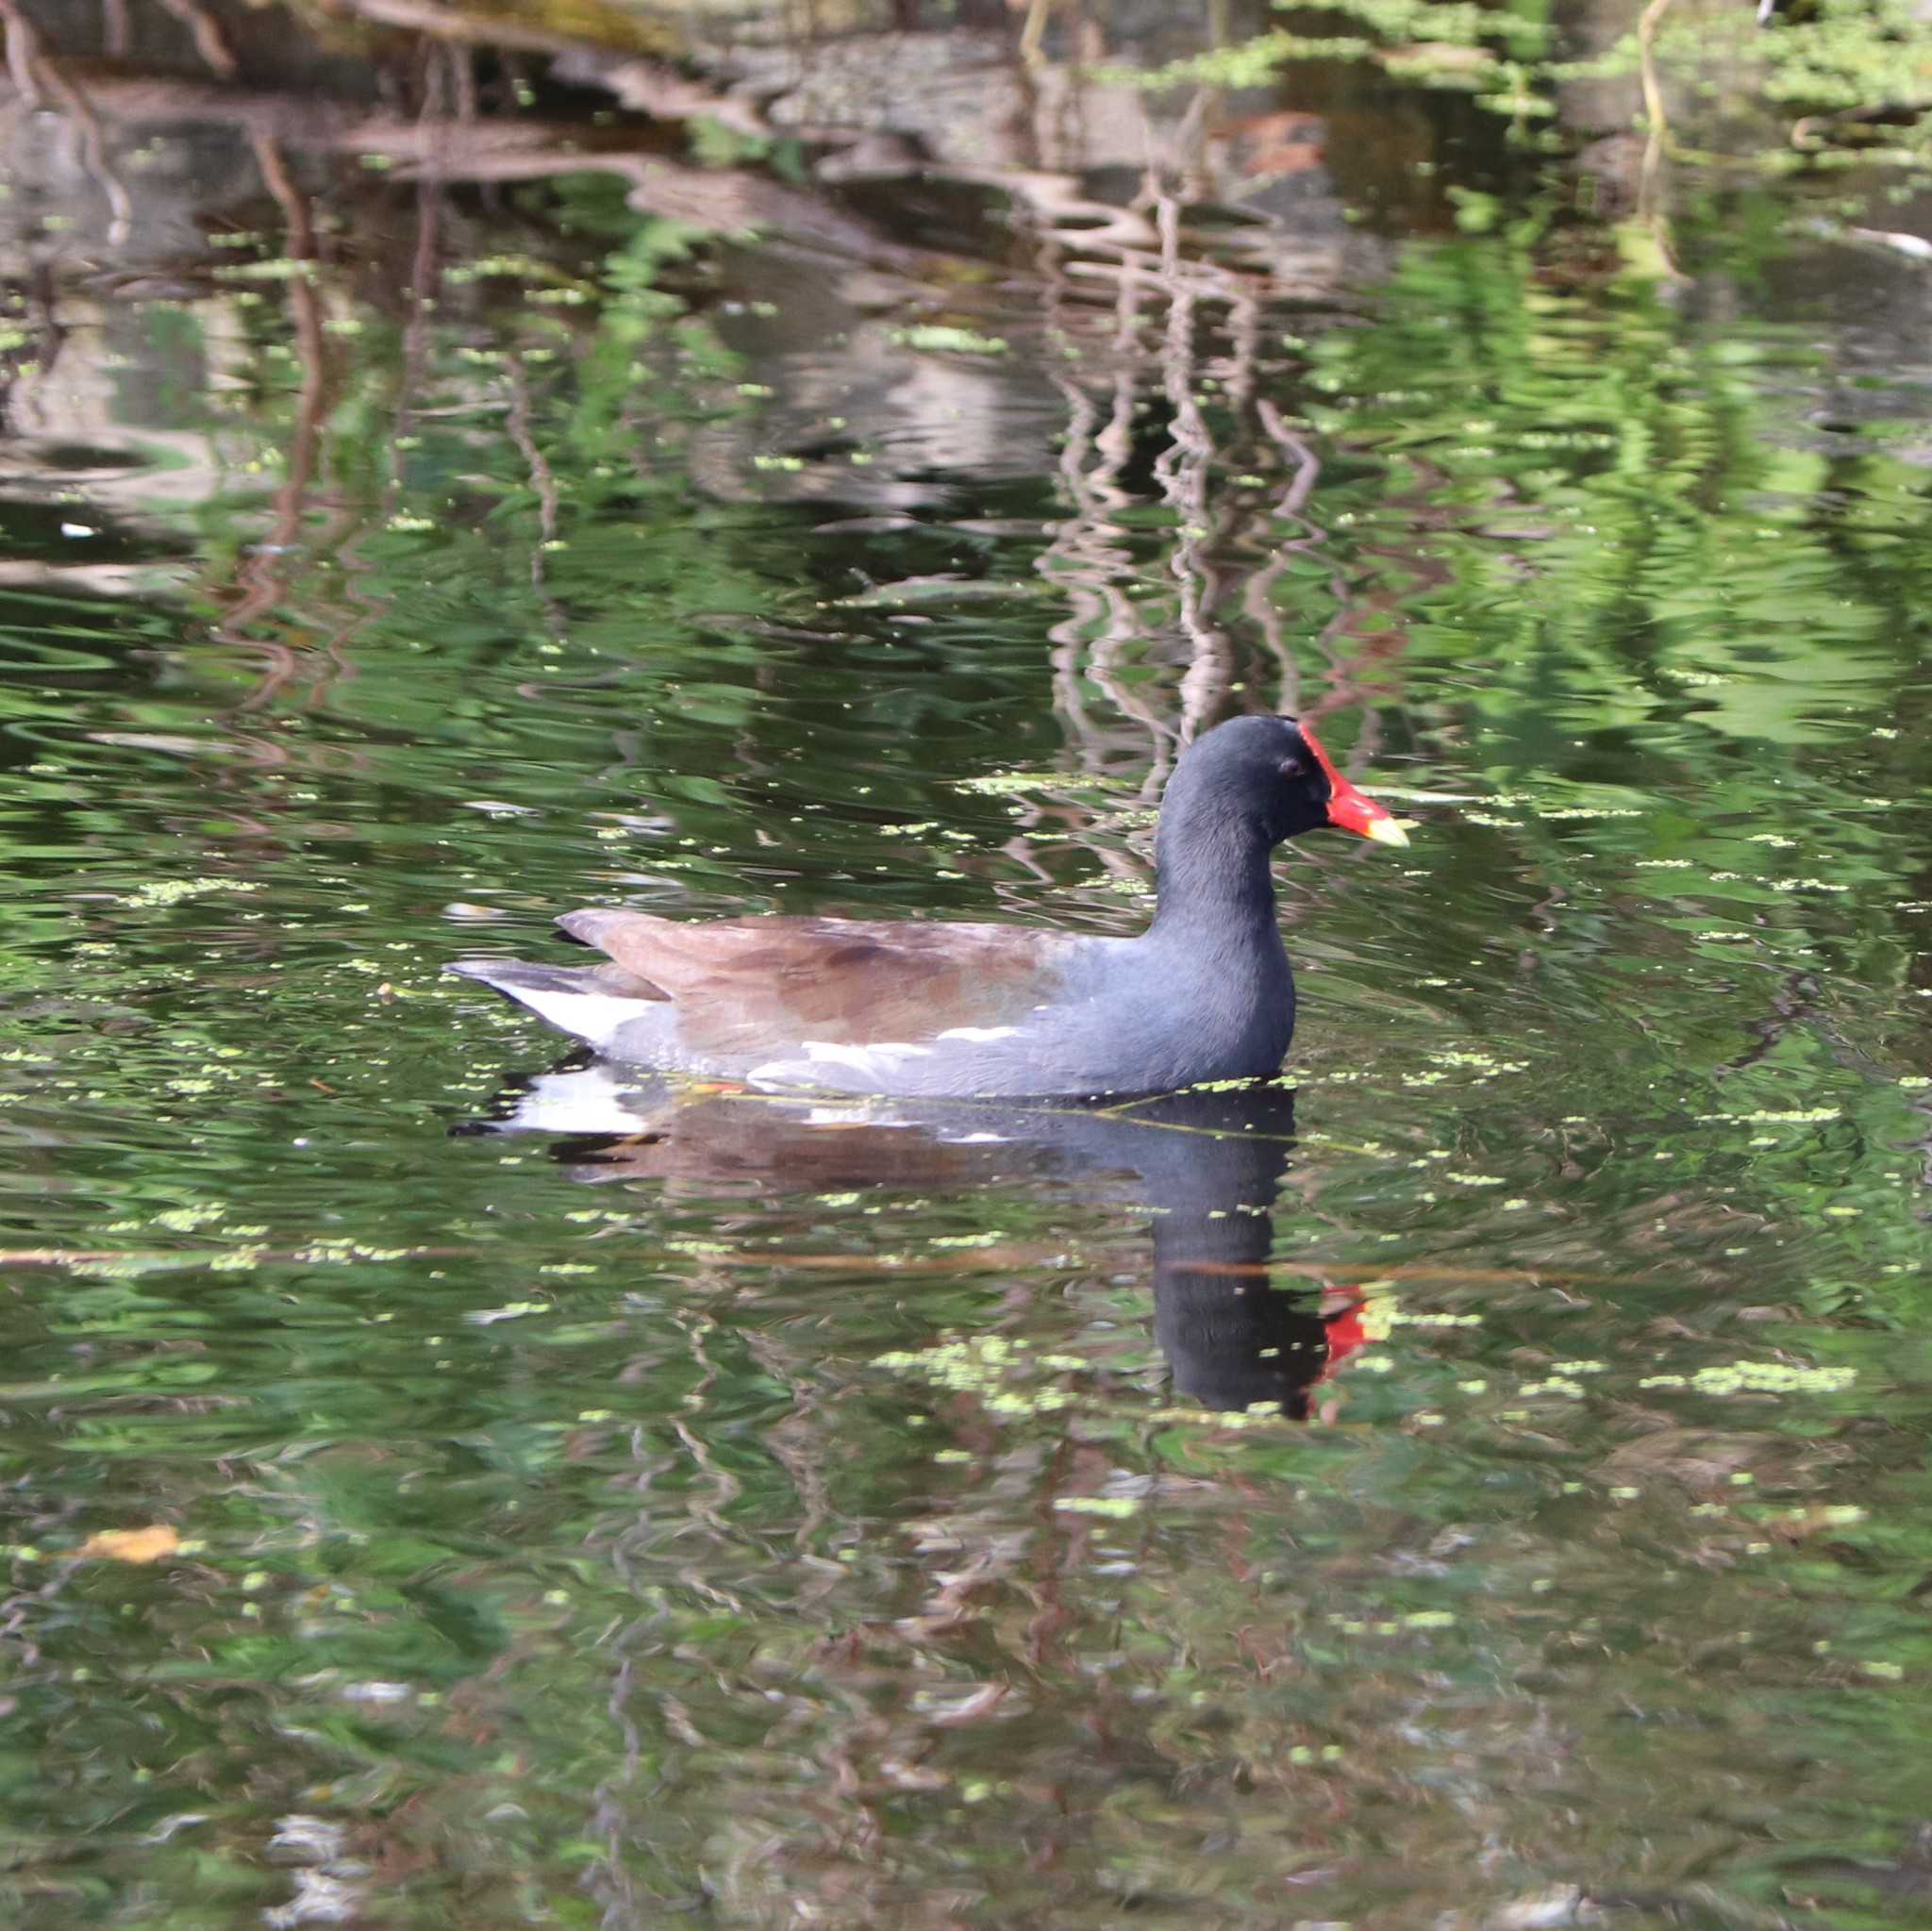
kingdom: Animalia
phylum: Chordata
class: Aves
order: Gruiformes
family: Rallidae
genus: Gallinula
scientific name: Gallinula chloropus
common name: Common moorhen
